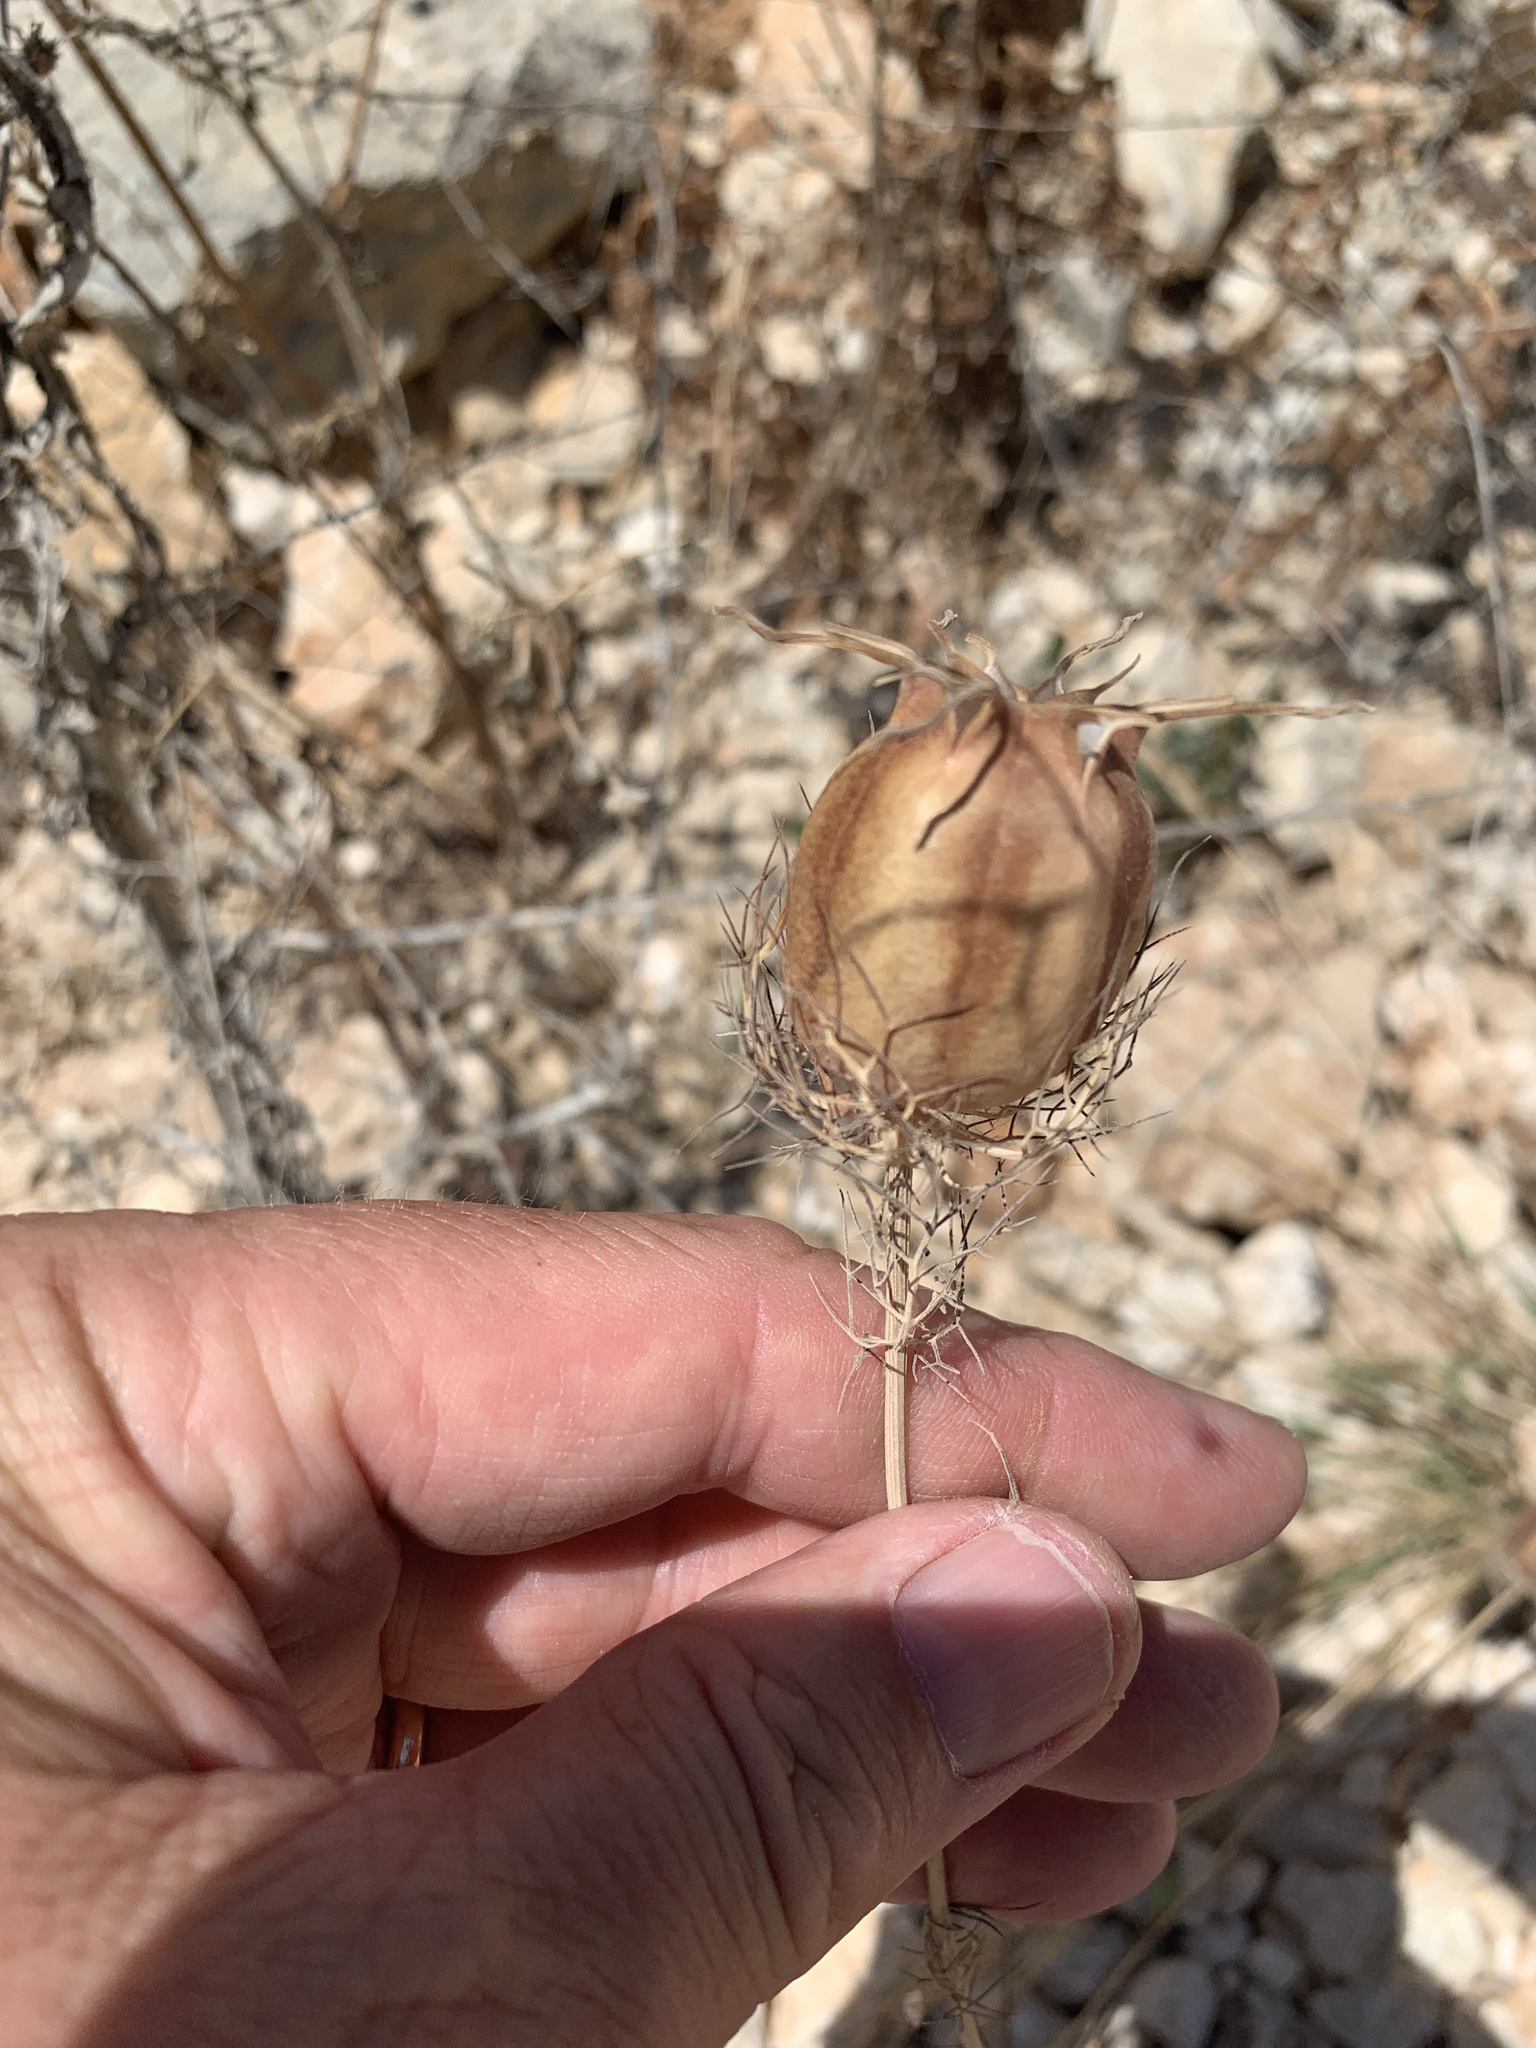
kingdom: Plantae
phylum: Tracheophyta
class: Magnoliopsida
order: Ranunculales
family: Ranunculaceae
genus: Nigella
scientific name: Nigella damascena
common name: Love-in-a-mist
